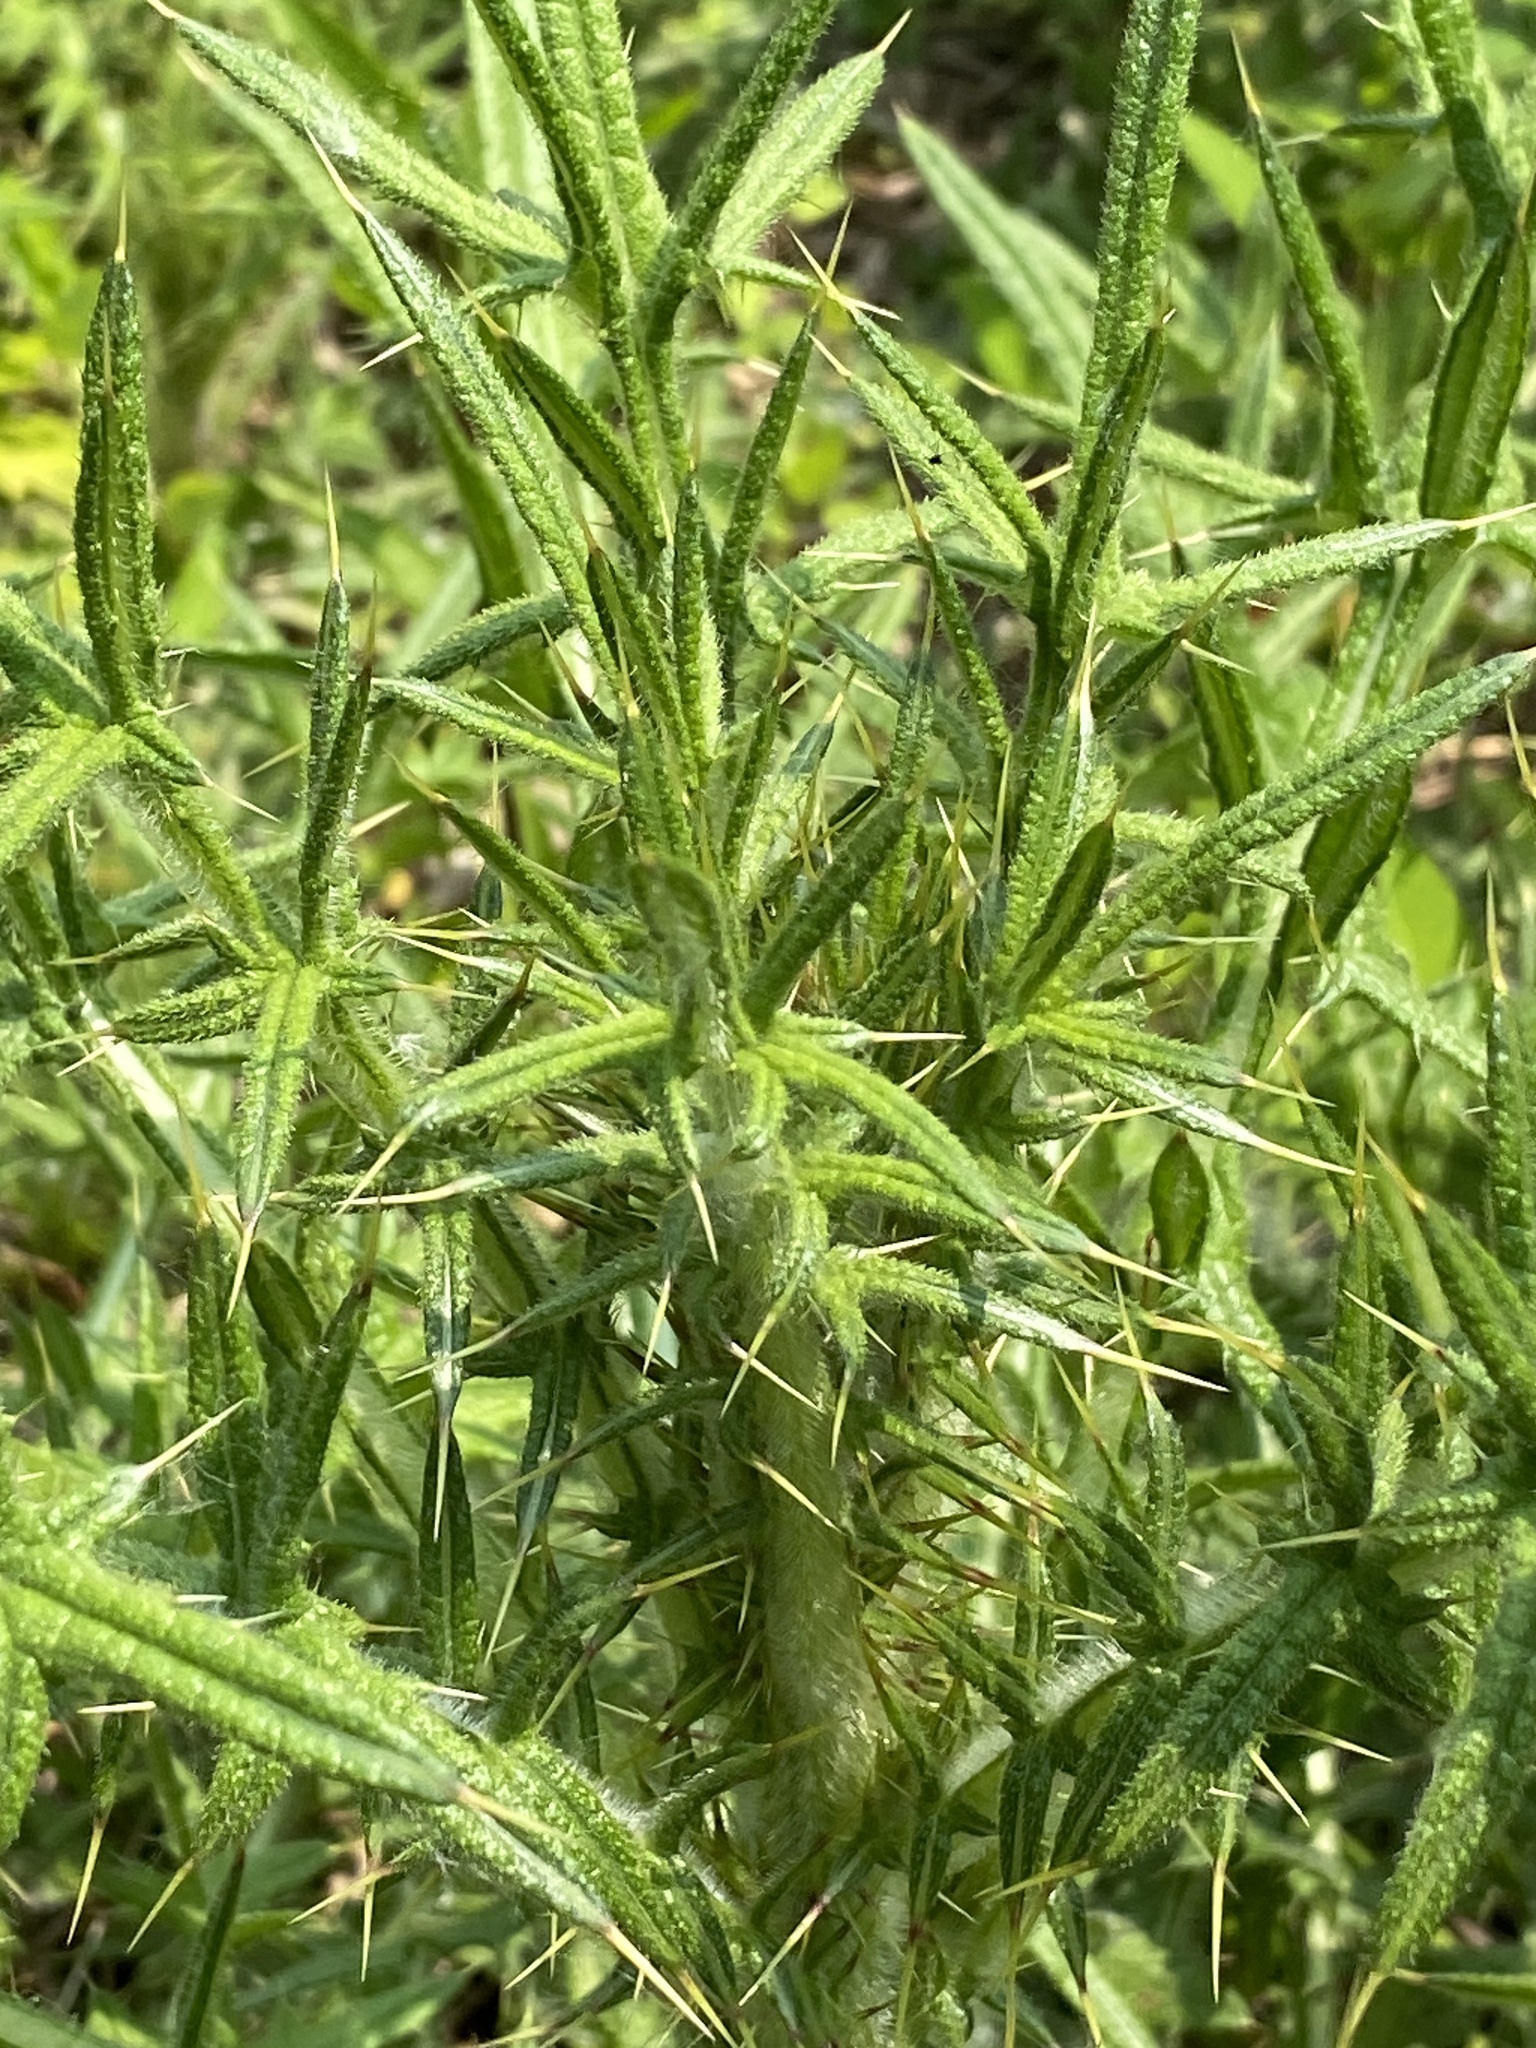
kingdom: Plantae
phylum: Tracheophyta
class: Magnoliopsida
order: Asterales
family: Asteraceae
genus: Cirsium
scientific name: Cirsium vulgare
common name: Bull thistle
